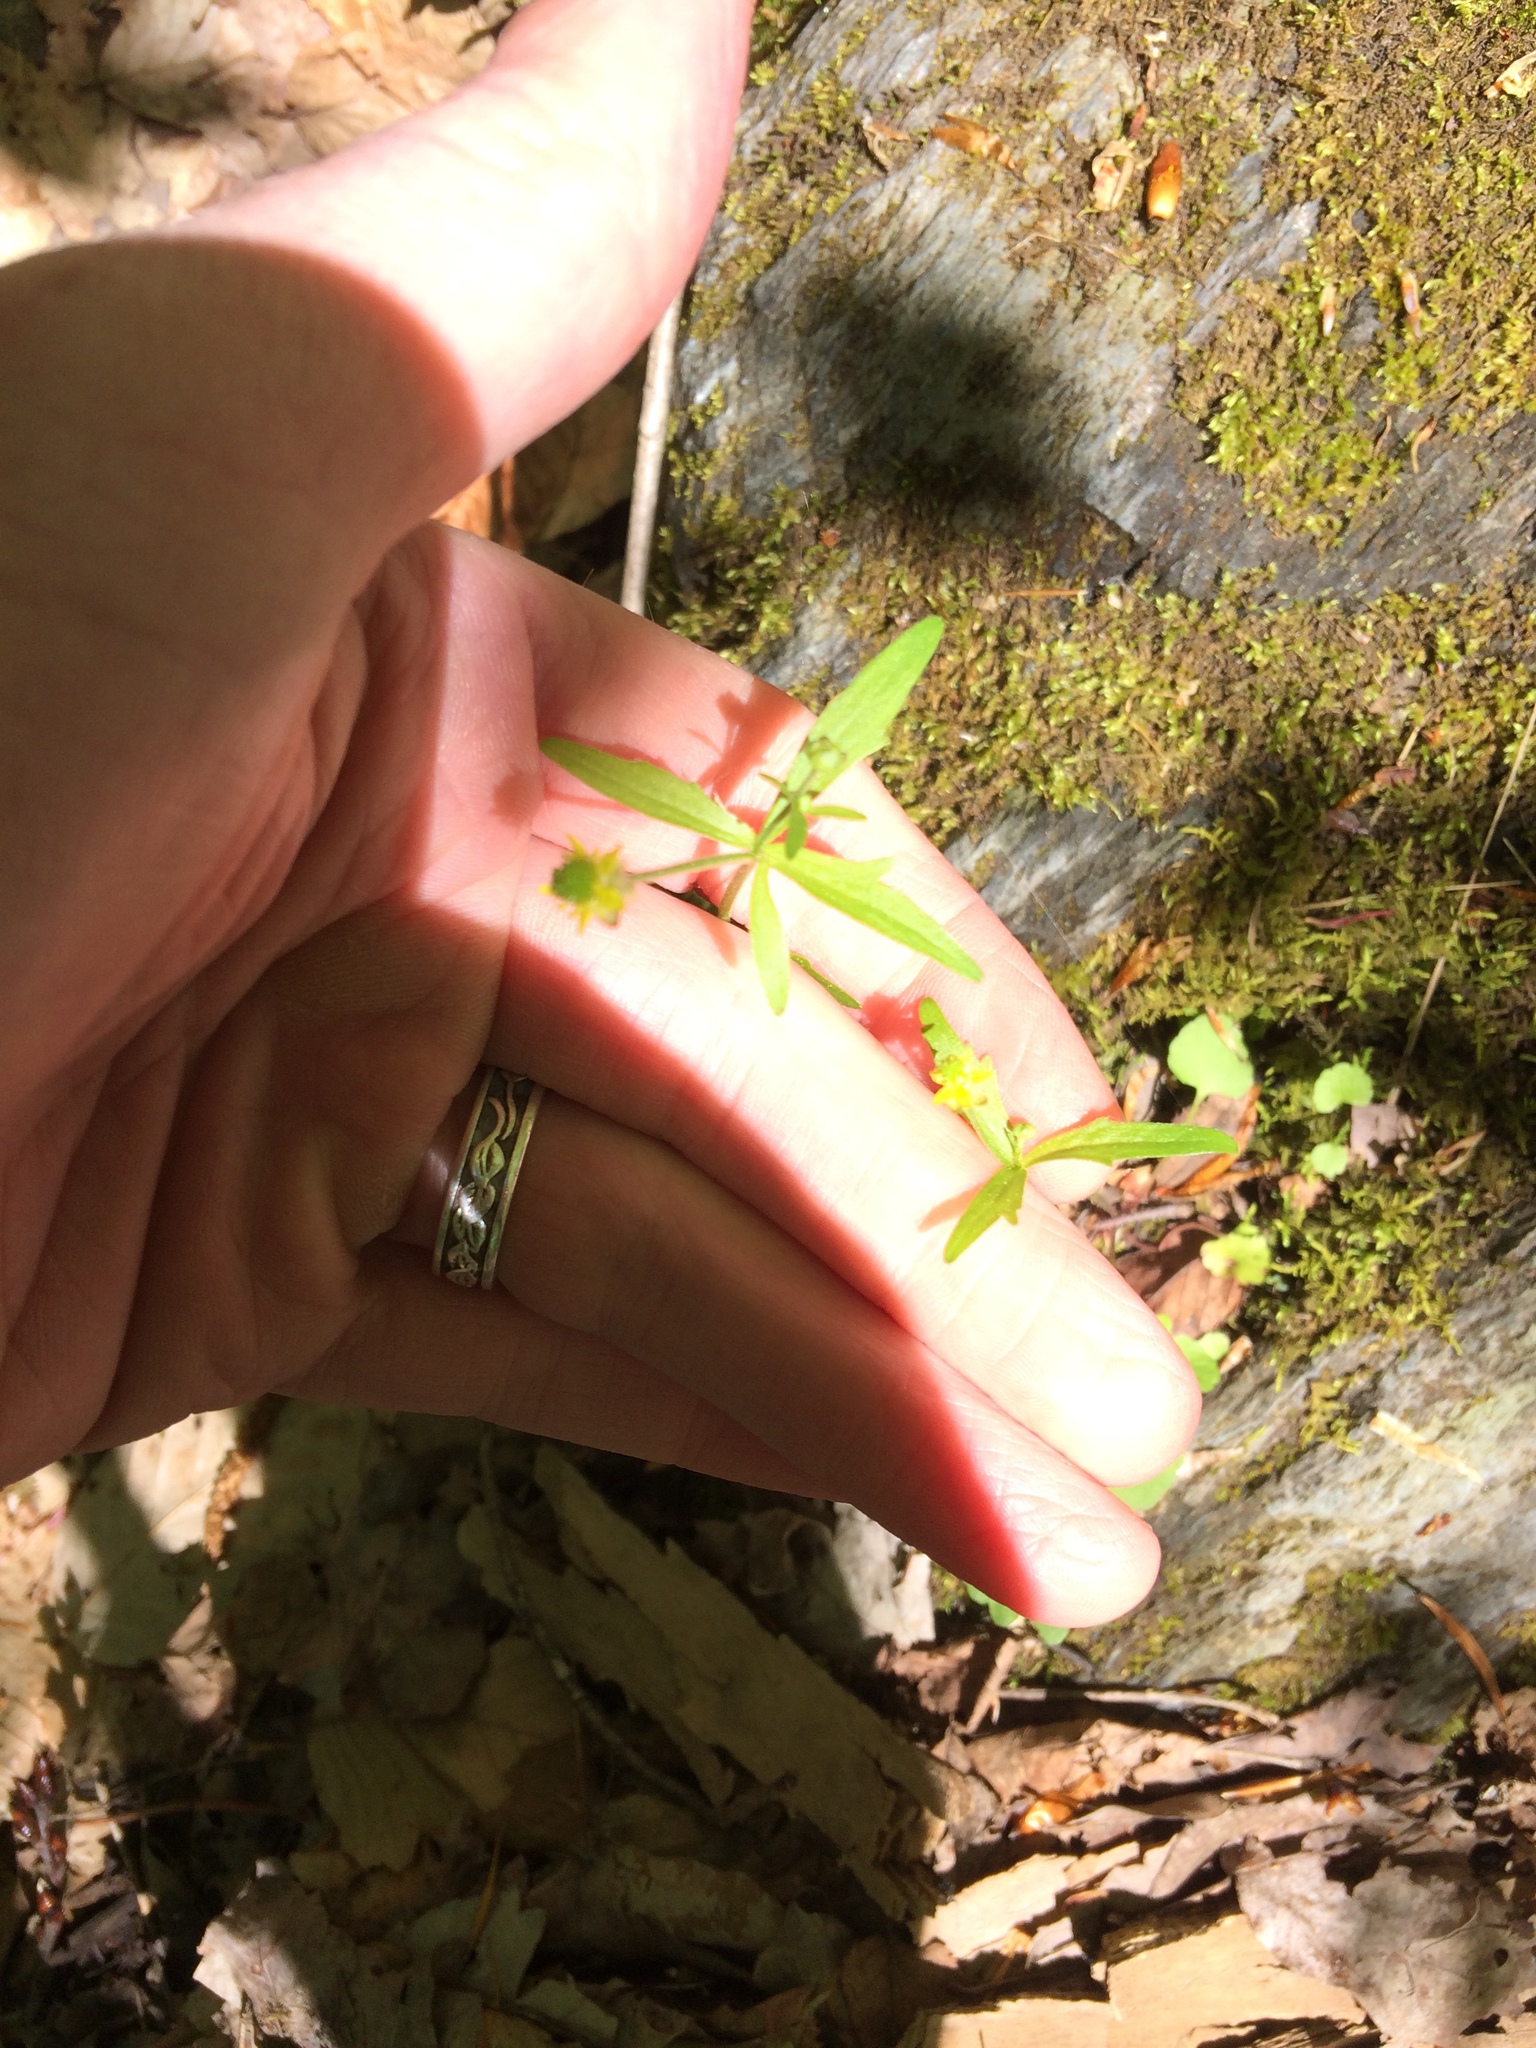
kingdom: Plantae
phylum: Tracheophyta
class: Magnoliopsida
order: Ranunculales
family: Ranunculaceae
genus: Ranunculus
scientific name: Ranunculus abortivus
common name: Early wood buttercup
